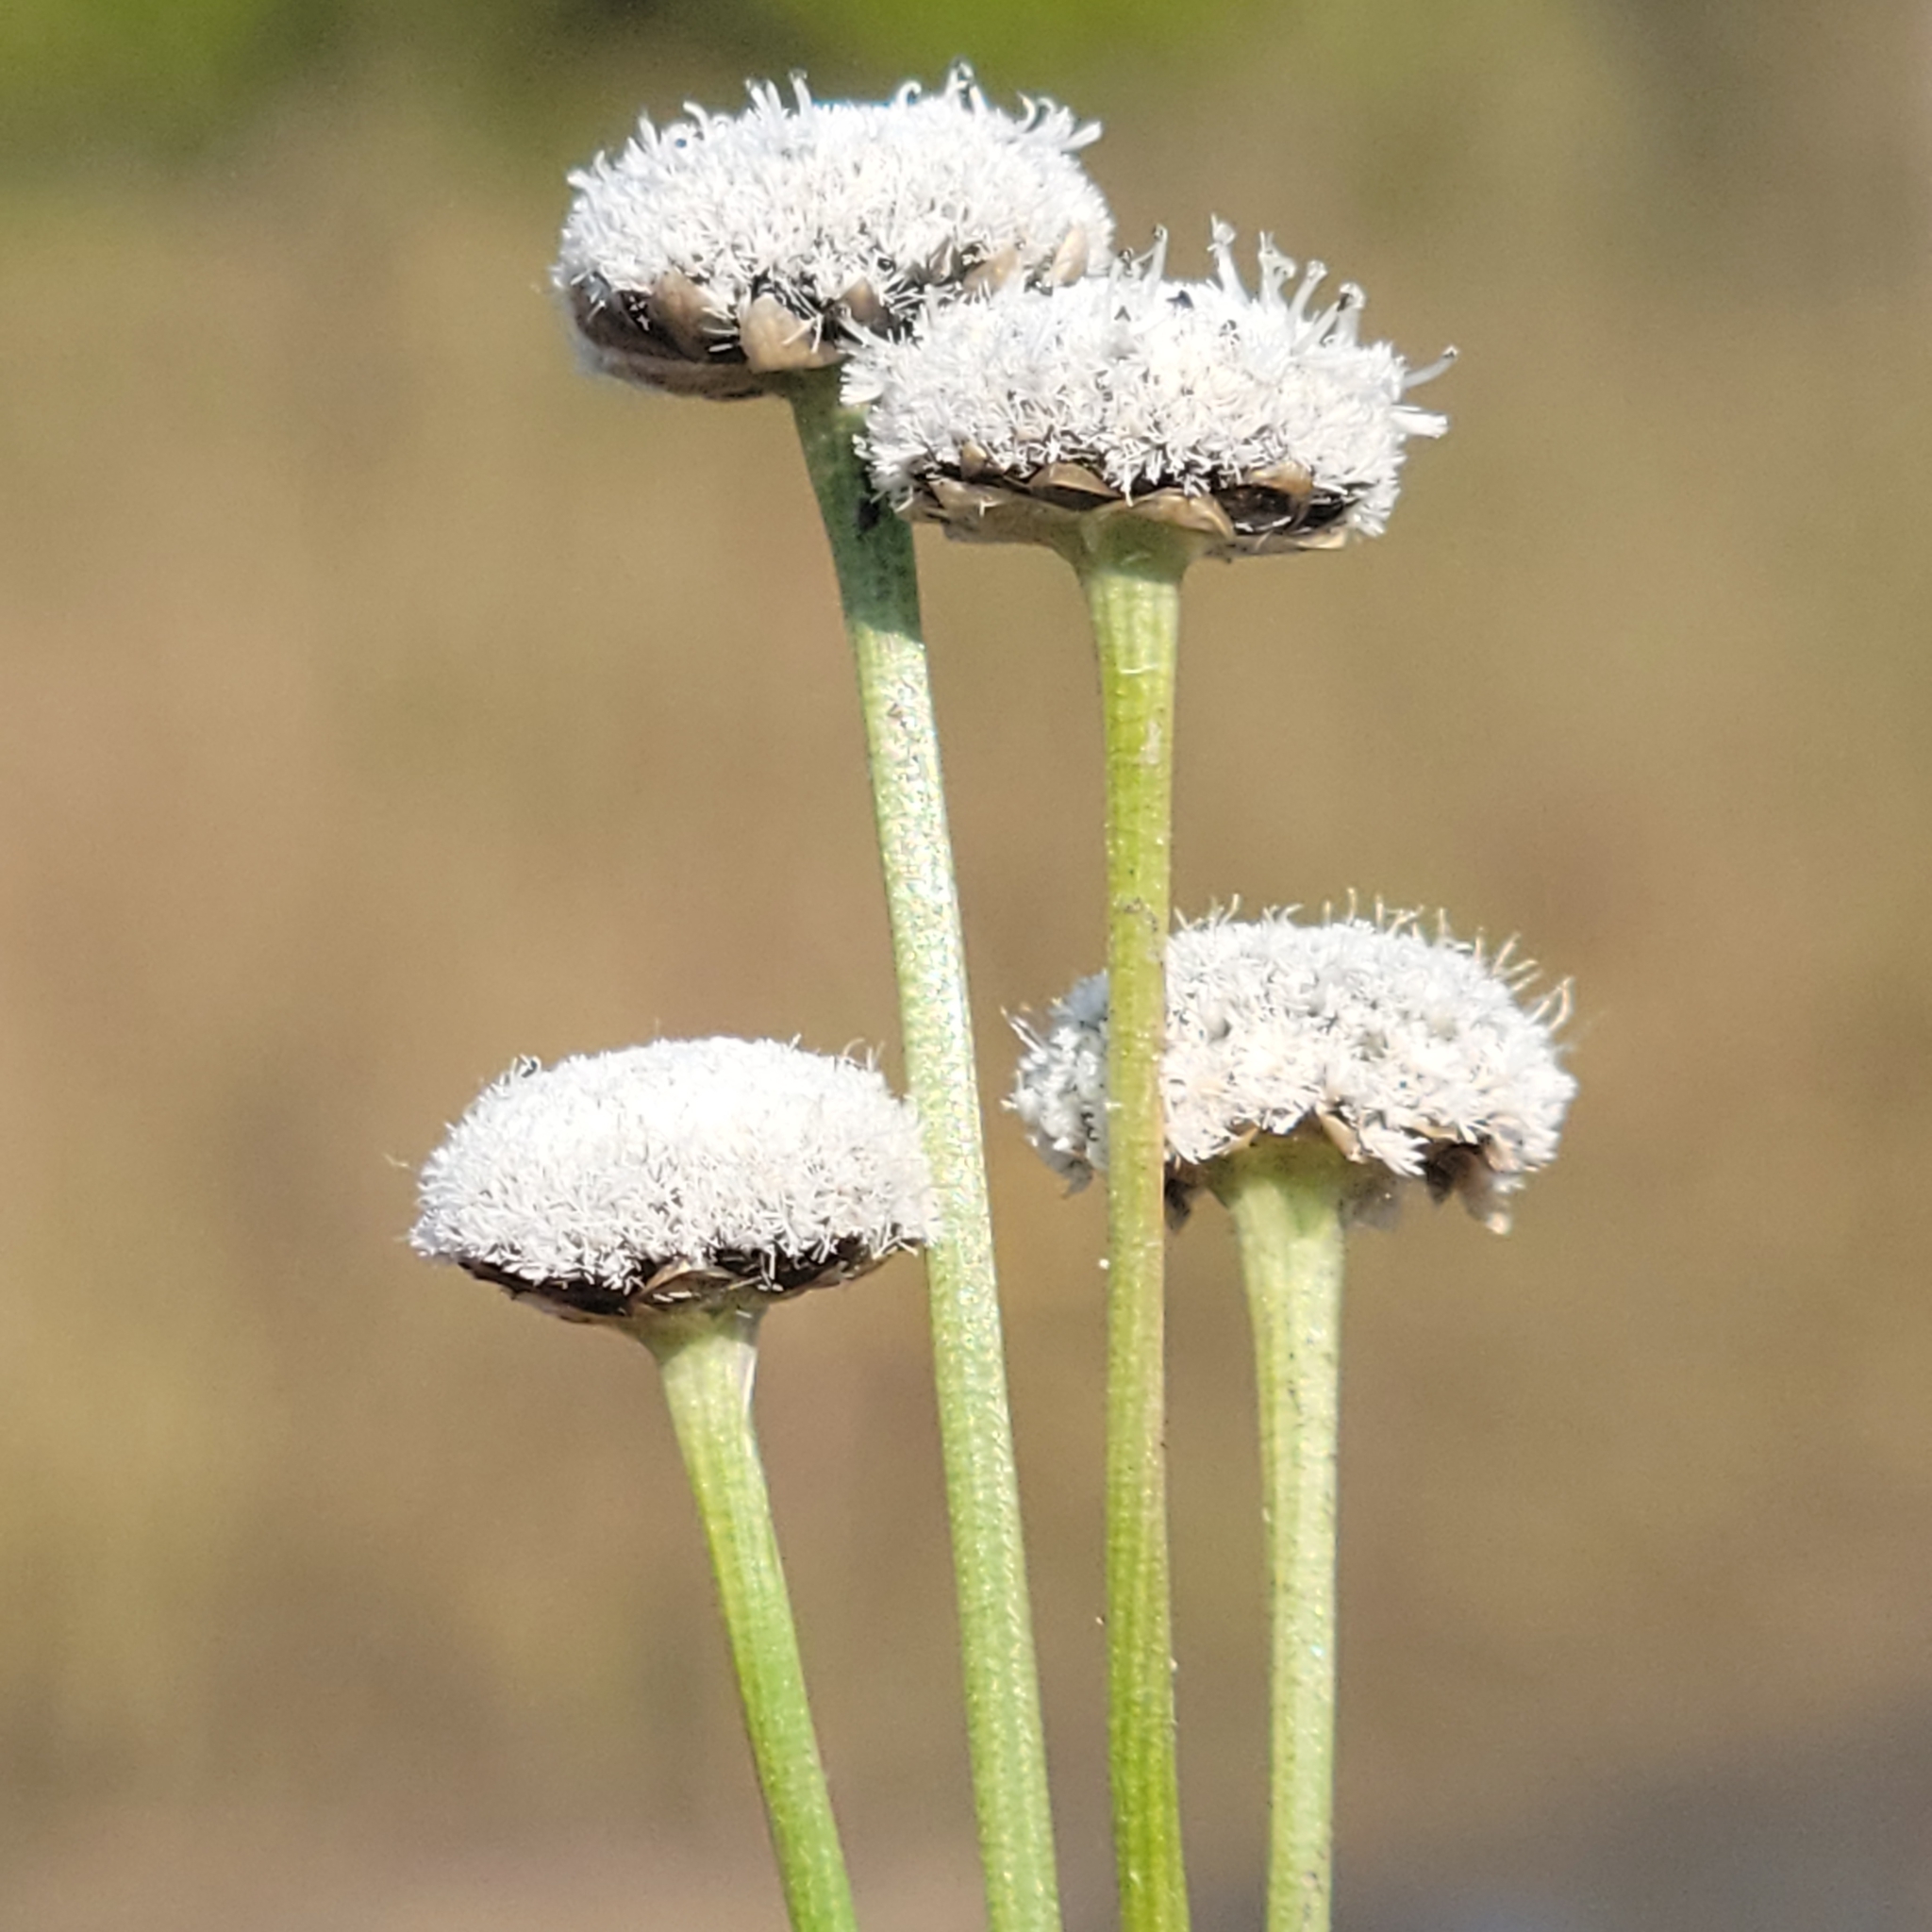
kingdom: Plantae
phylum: Tracheophyta
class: Liliopsida
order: Poales
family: Eriocaulaceae
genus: Eriocaulon
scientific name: Eriocaulon compressum
